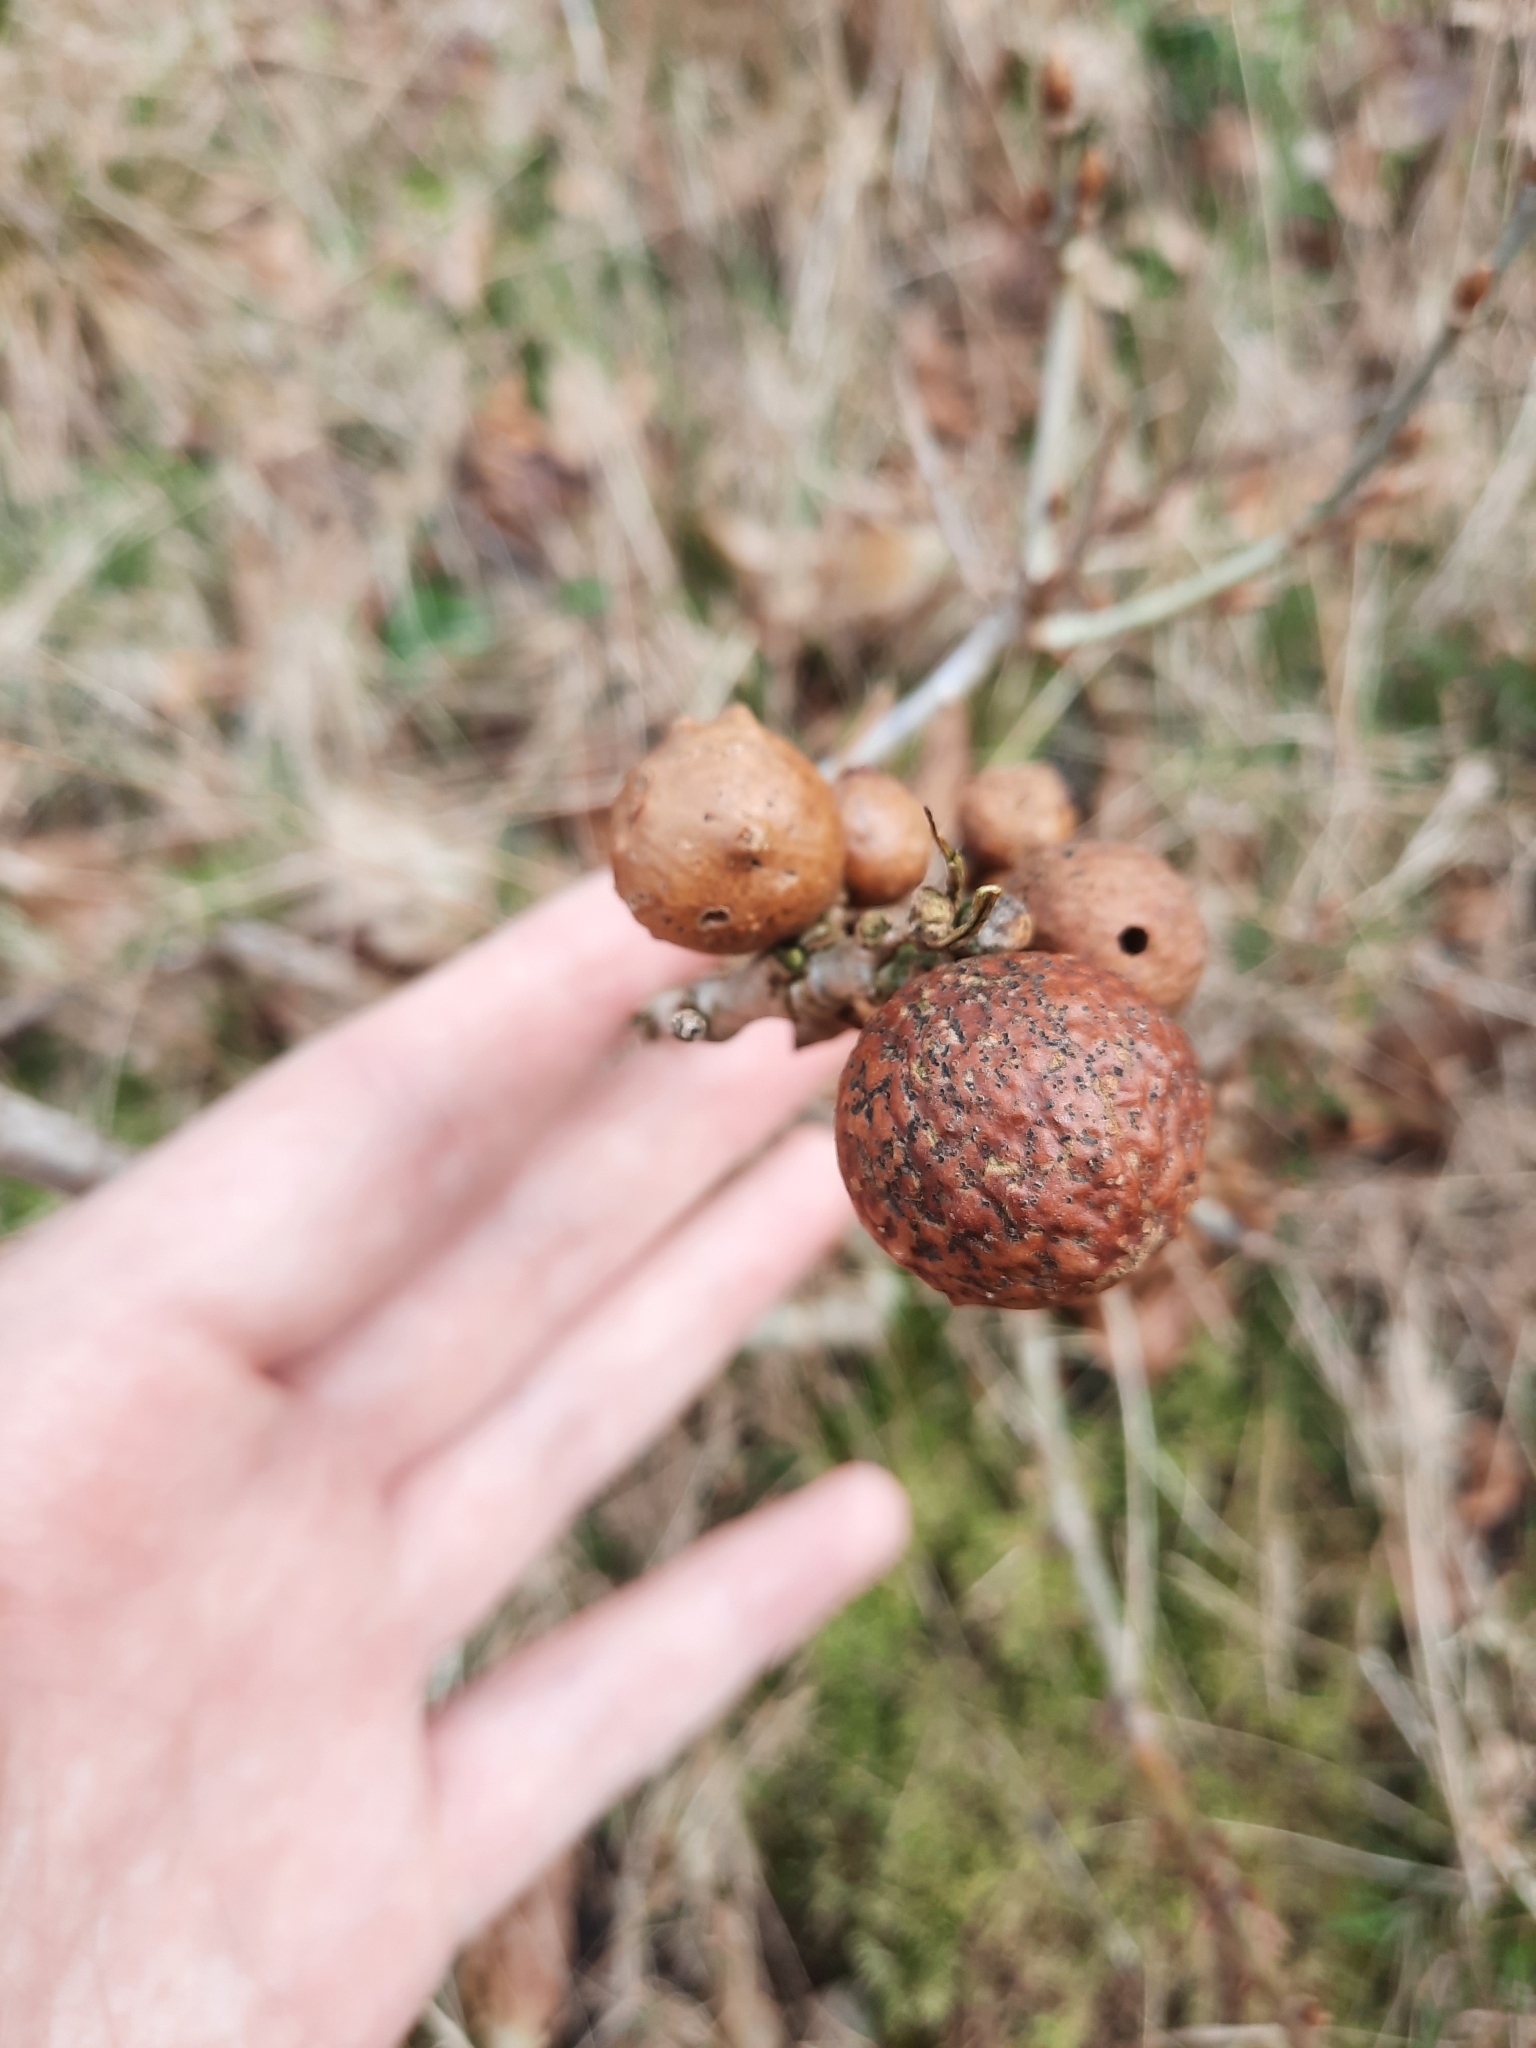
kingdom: Animalia
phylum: Arthropoda
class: Insecta
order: Hymenoptera
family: Cynipidae
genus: Andricus
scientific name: Andricus kollari
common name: Marble gall
